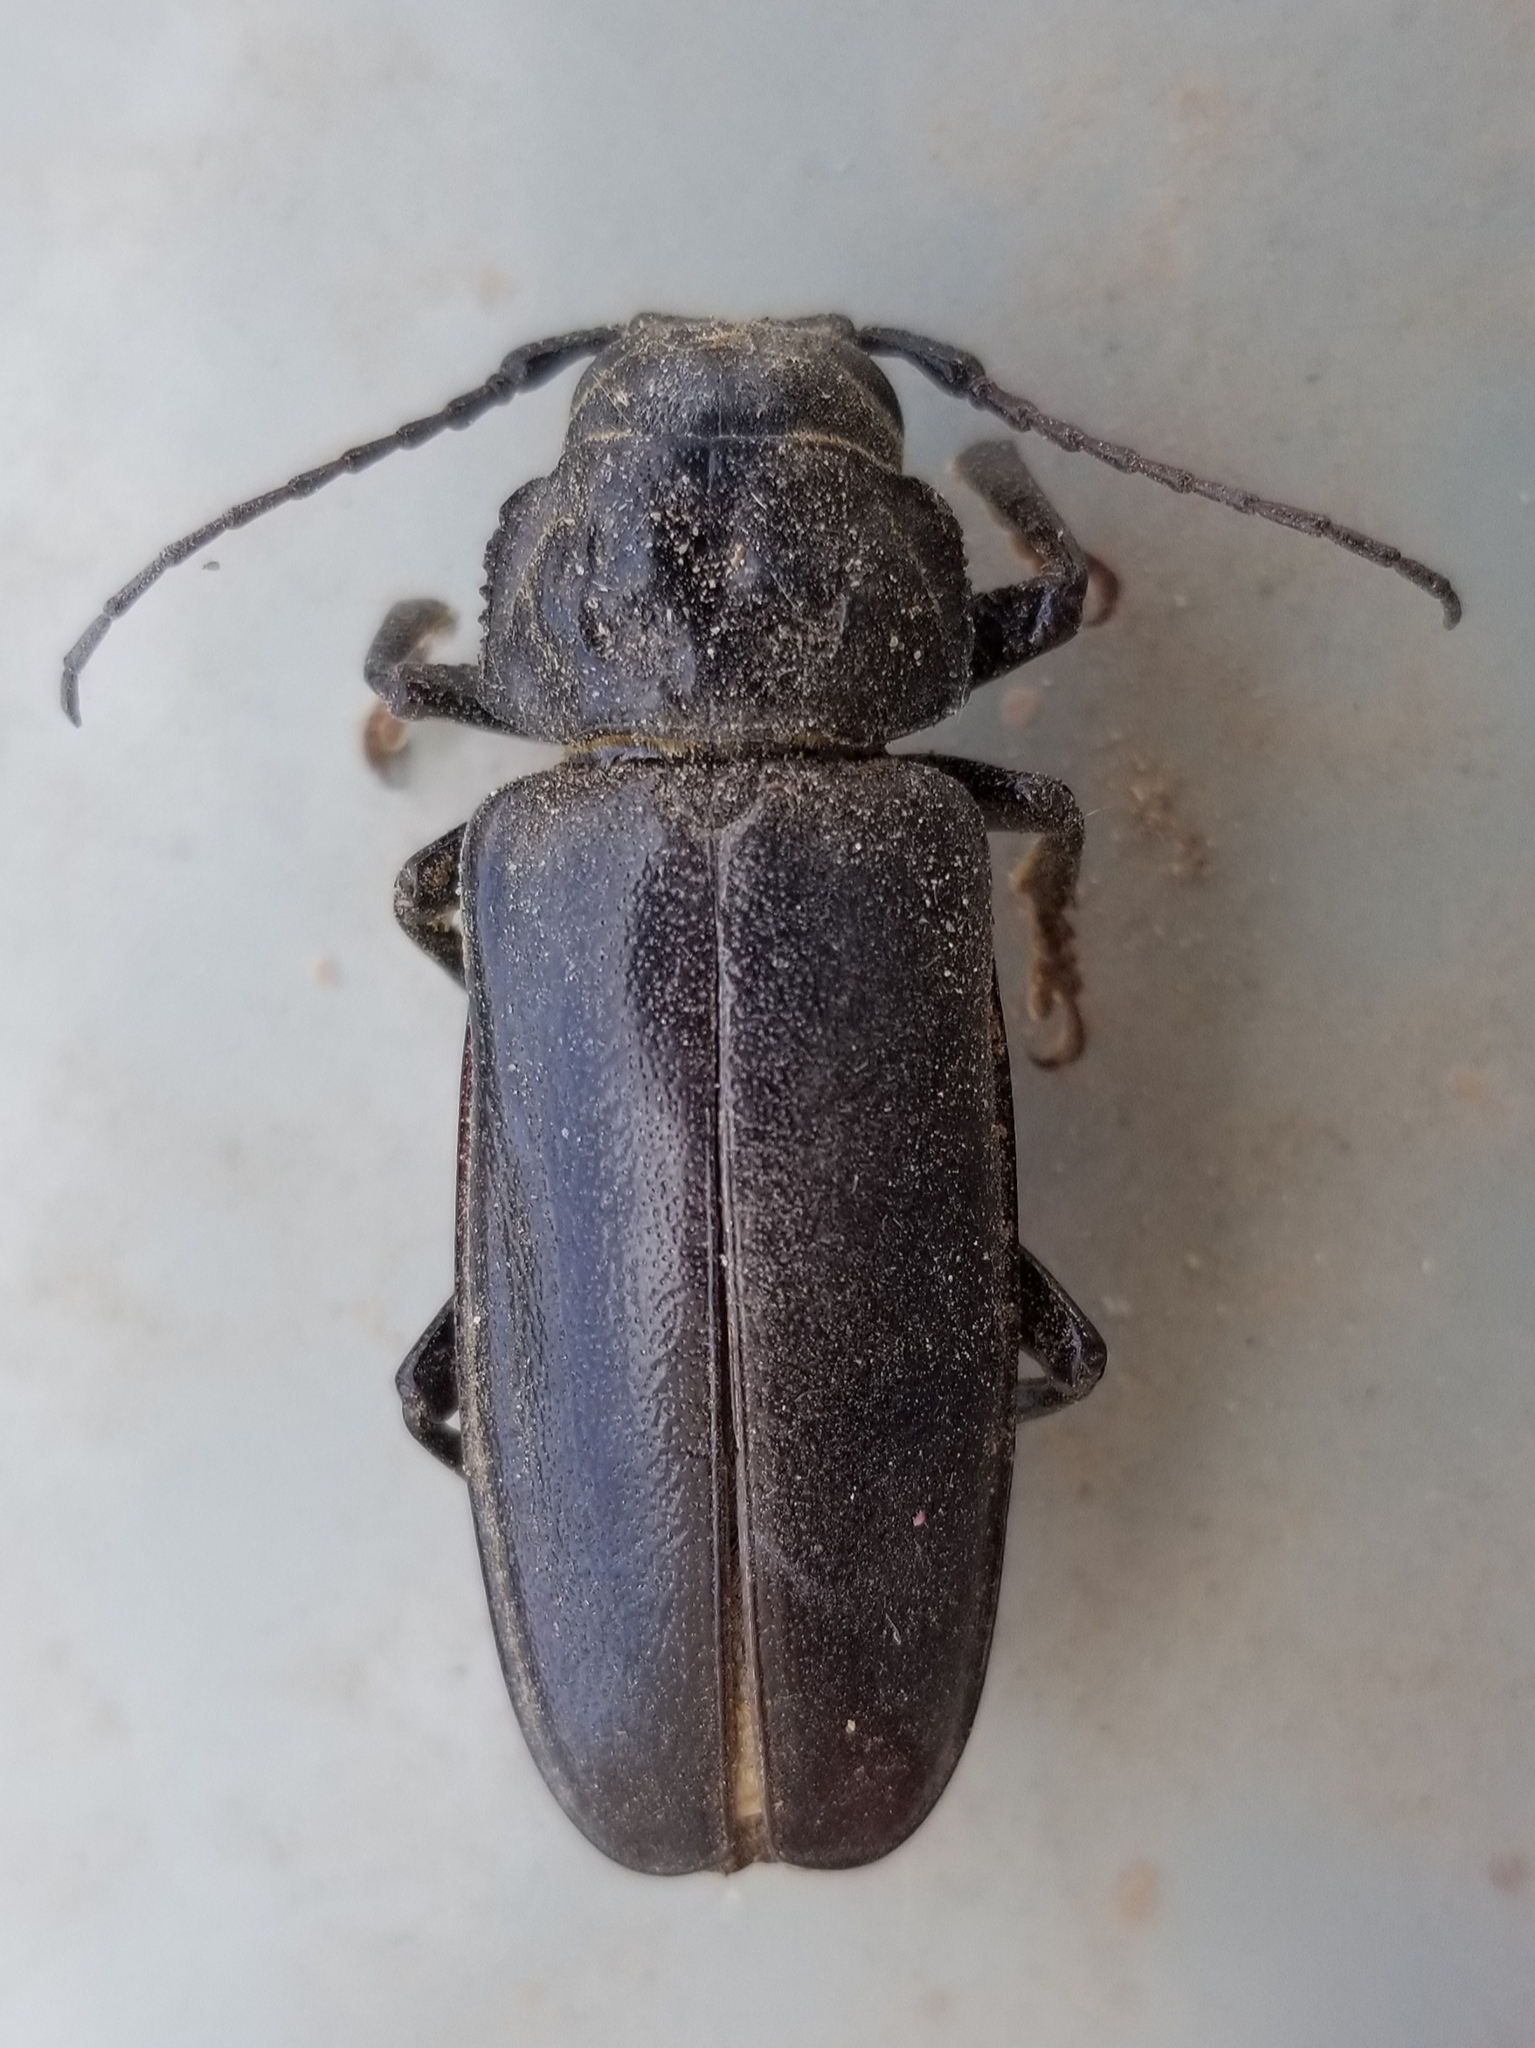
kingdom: Animalia
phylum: Arthropoda
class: Insecta
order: Coleoptera
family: Cerambycidae
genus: Archodontes
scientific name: Archodontes melanopus
